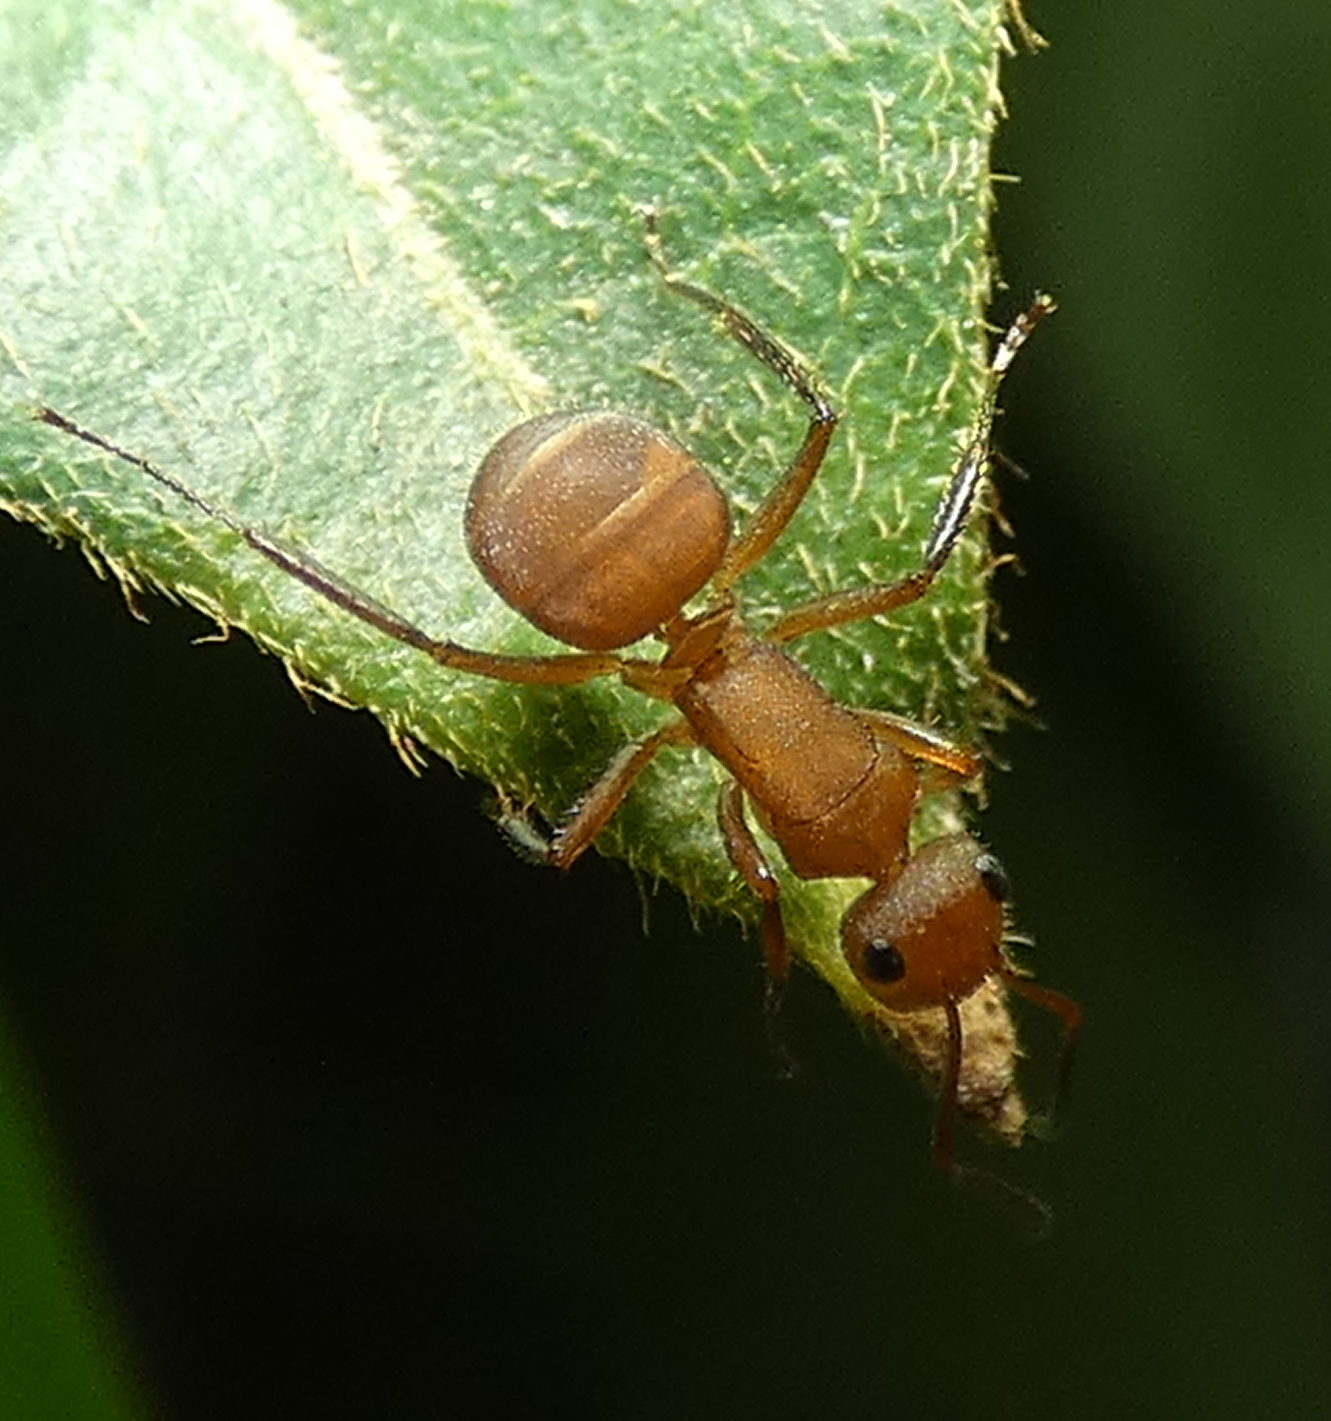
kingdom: Animalia
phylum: Arthropoda
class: Insecta
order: Hymenoptera
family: Formicidae
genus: Camponotus
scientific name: Camponotus rectangularis
